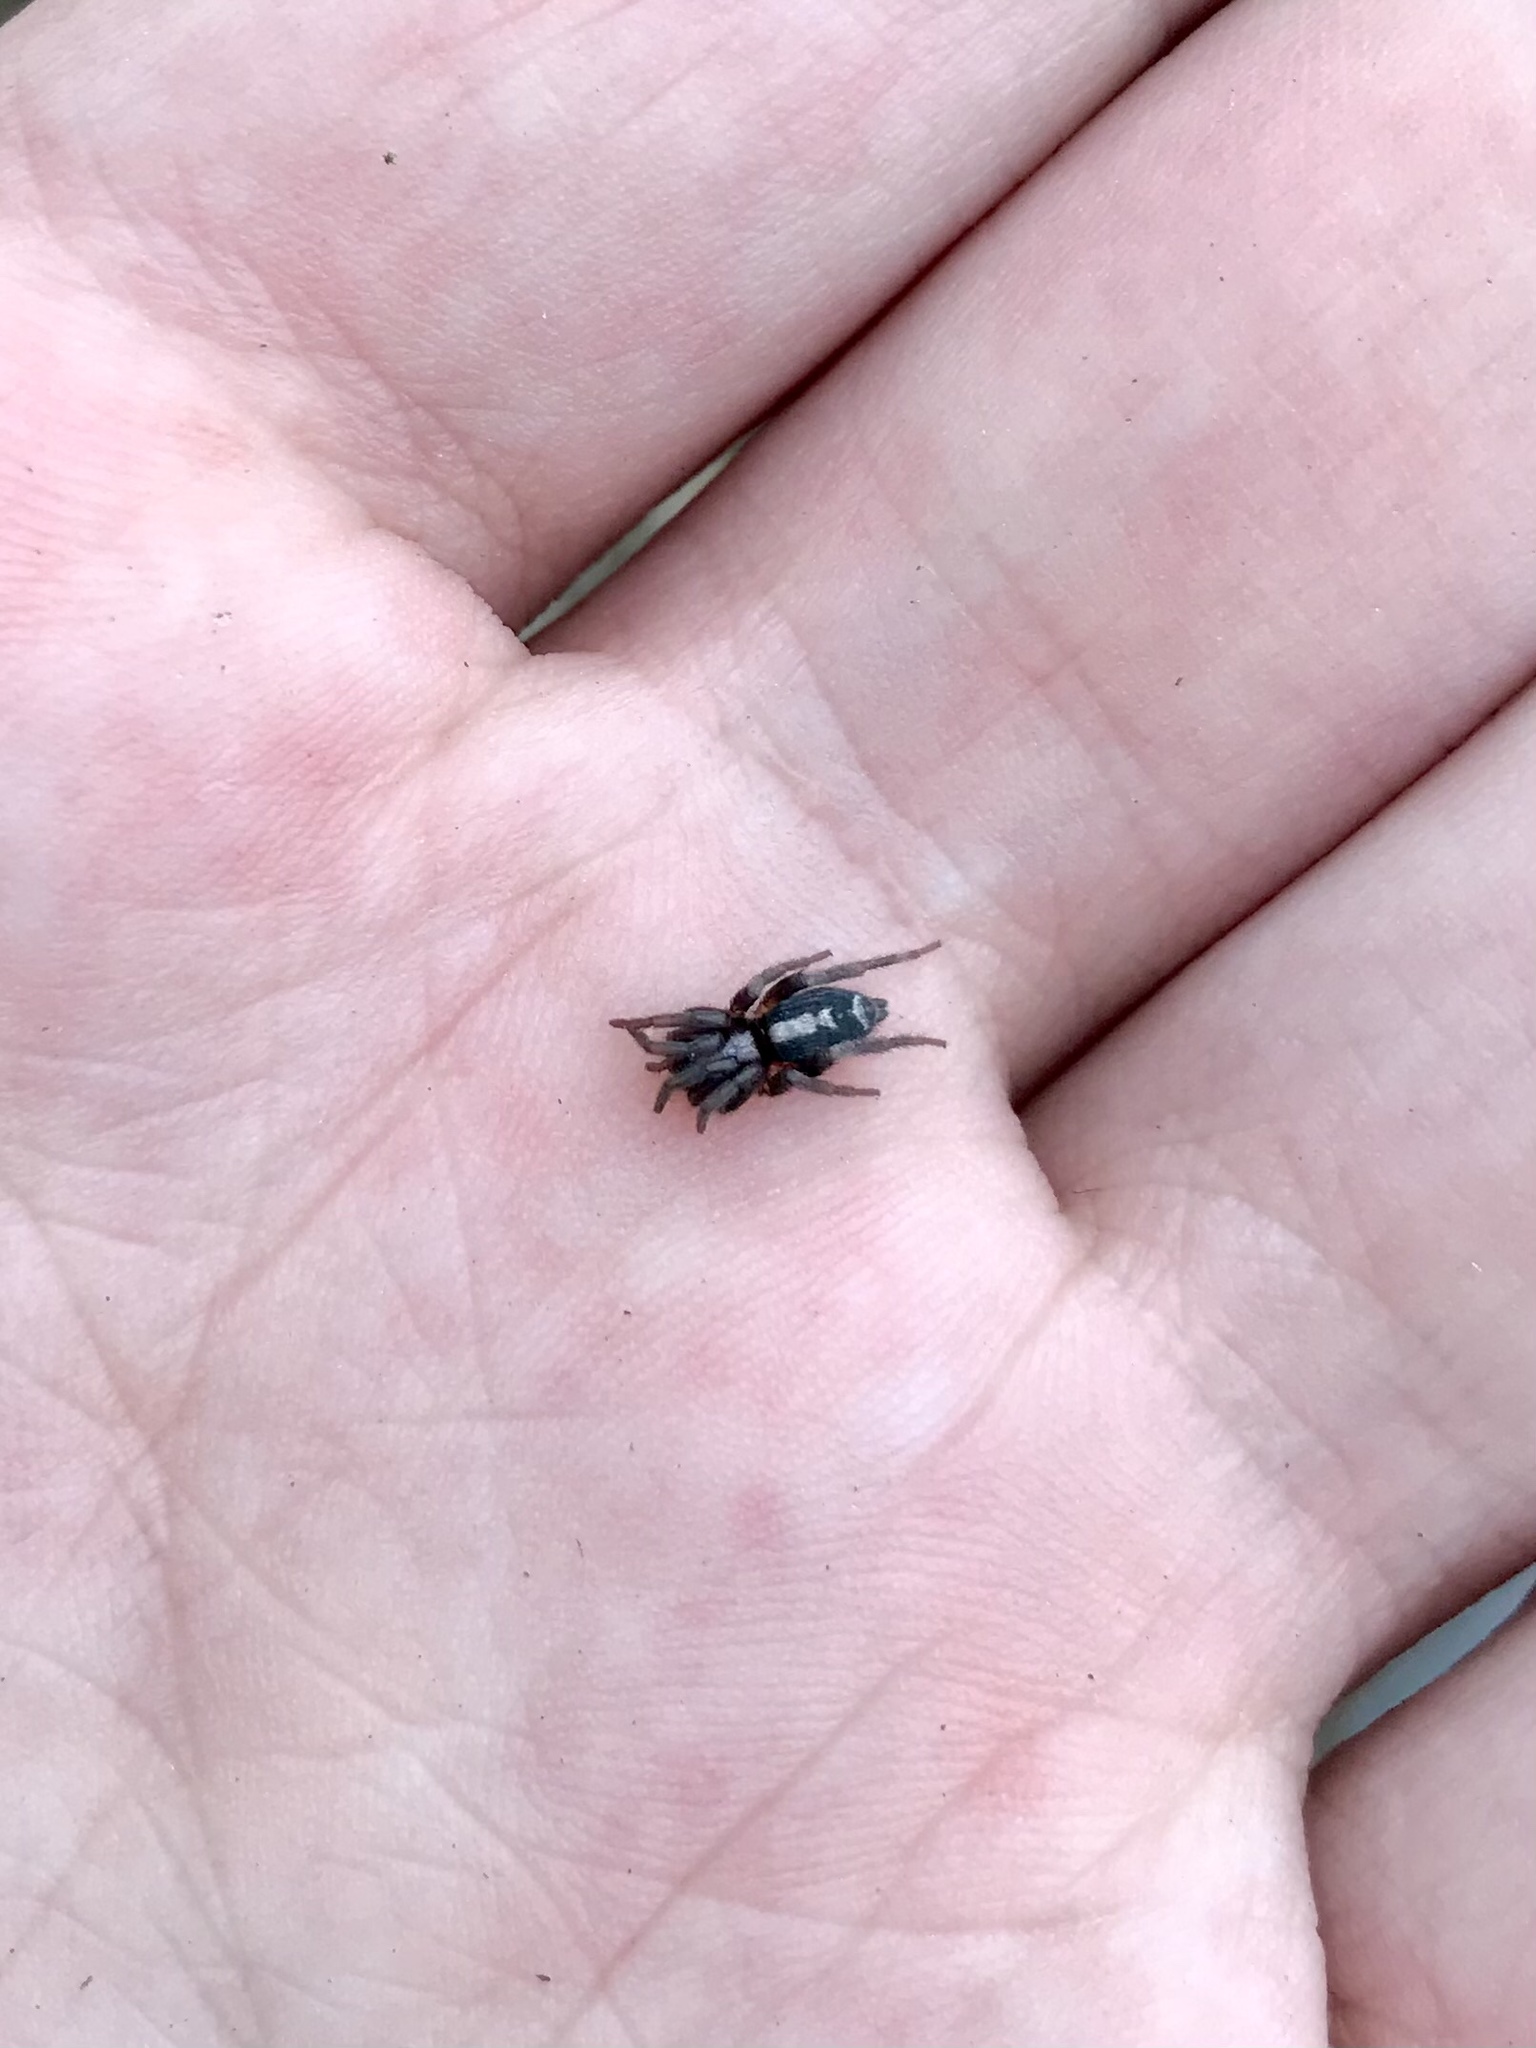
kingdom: Animalia
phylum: Arthropoda
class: Arachnida
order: Araneae
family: Gnaphosidae
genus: Herpyllus
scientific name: Herpyllus ecclesiasticus
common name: Eastern parson spider
